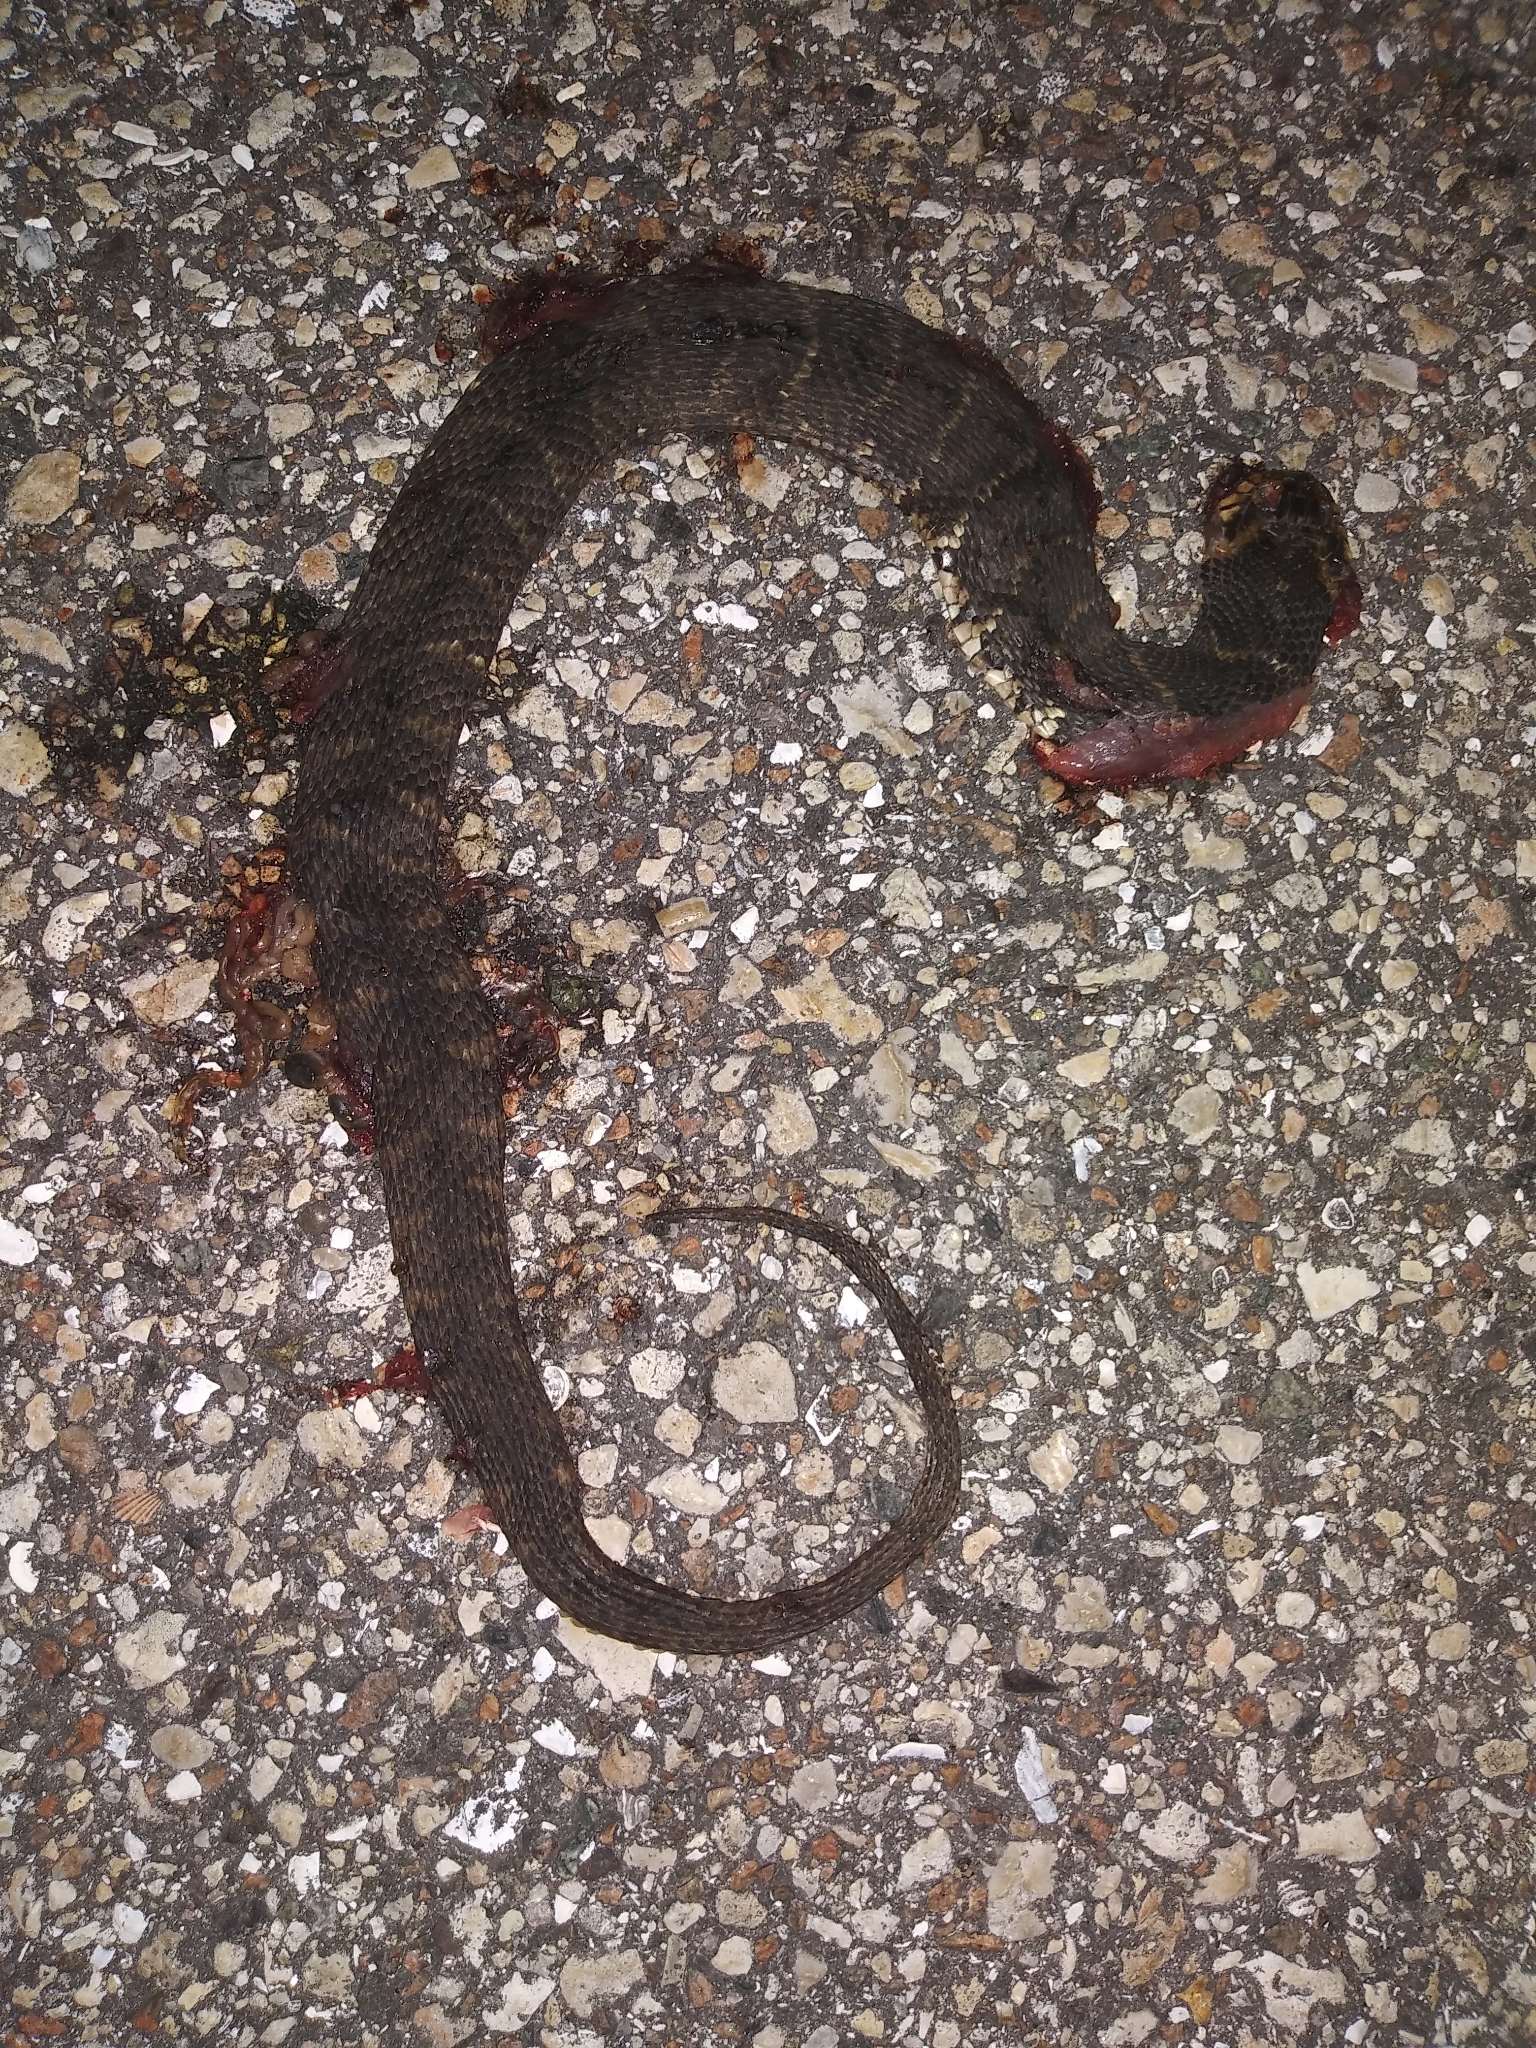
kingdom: Animalia
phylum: Chordata
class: Squamata
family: Colubridae
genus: Nerodia
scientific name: Nerodia fasciata
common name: Southern water snake
